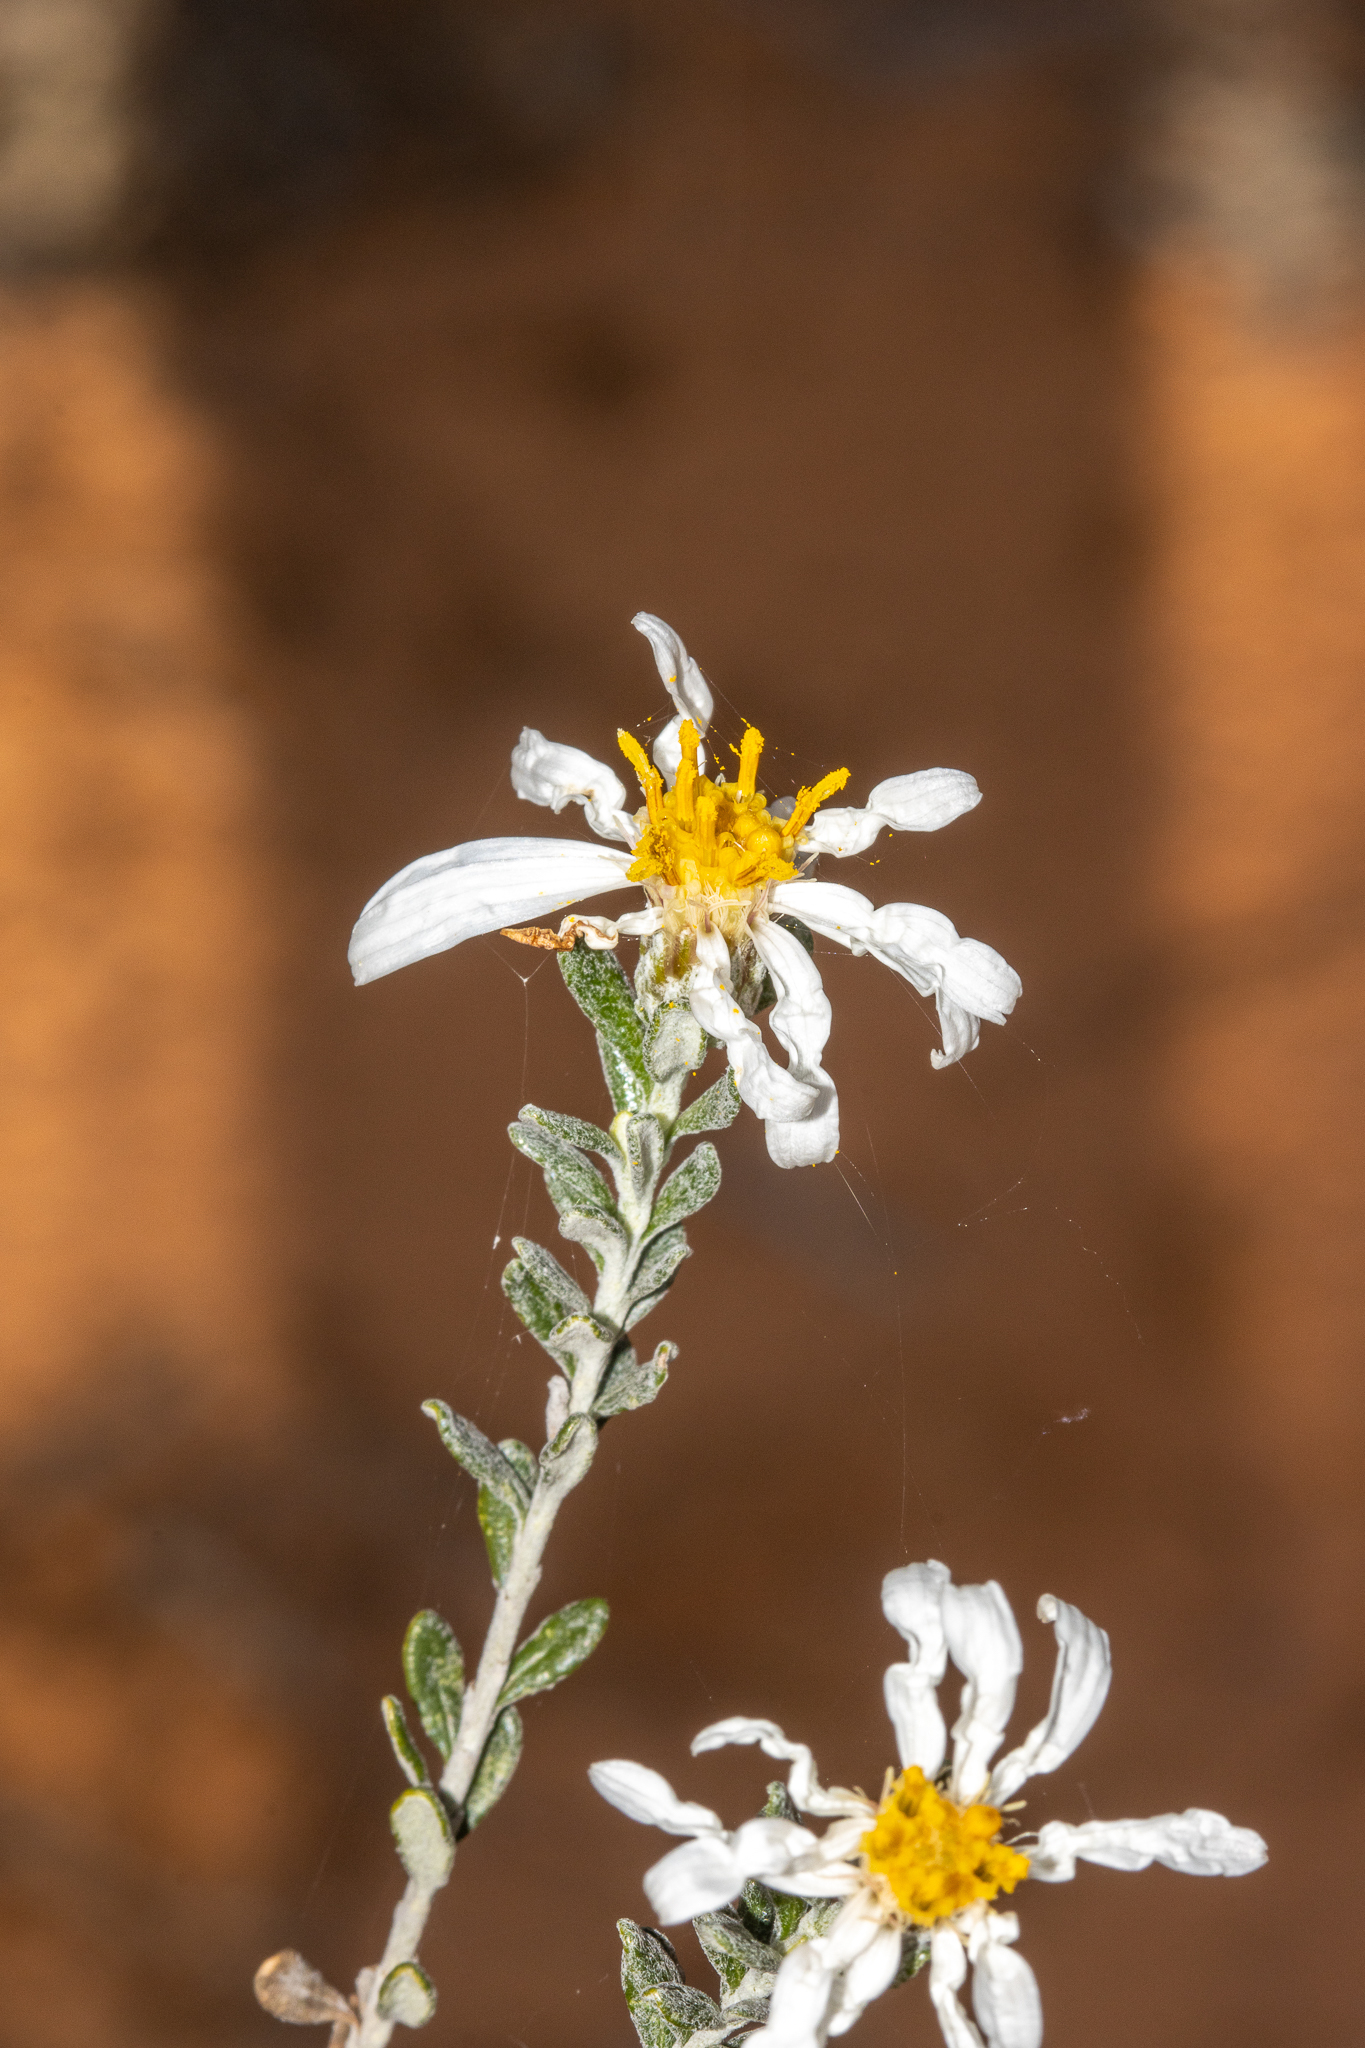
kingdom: Plantae
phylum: Tracheophyta
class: Magnoliopsida
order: Asterales
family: Asteraceae
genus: Olearia
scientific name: Olearia pimeleoides
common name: Showy daisybush
